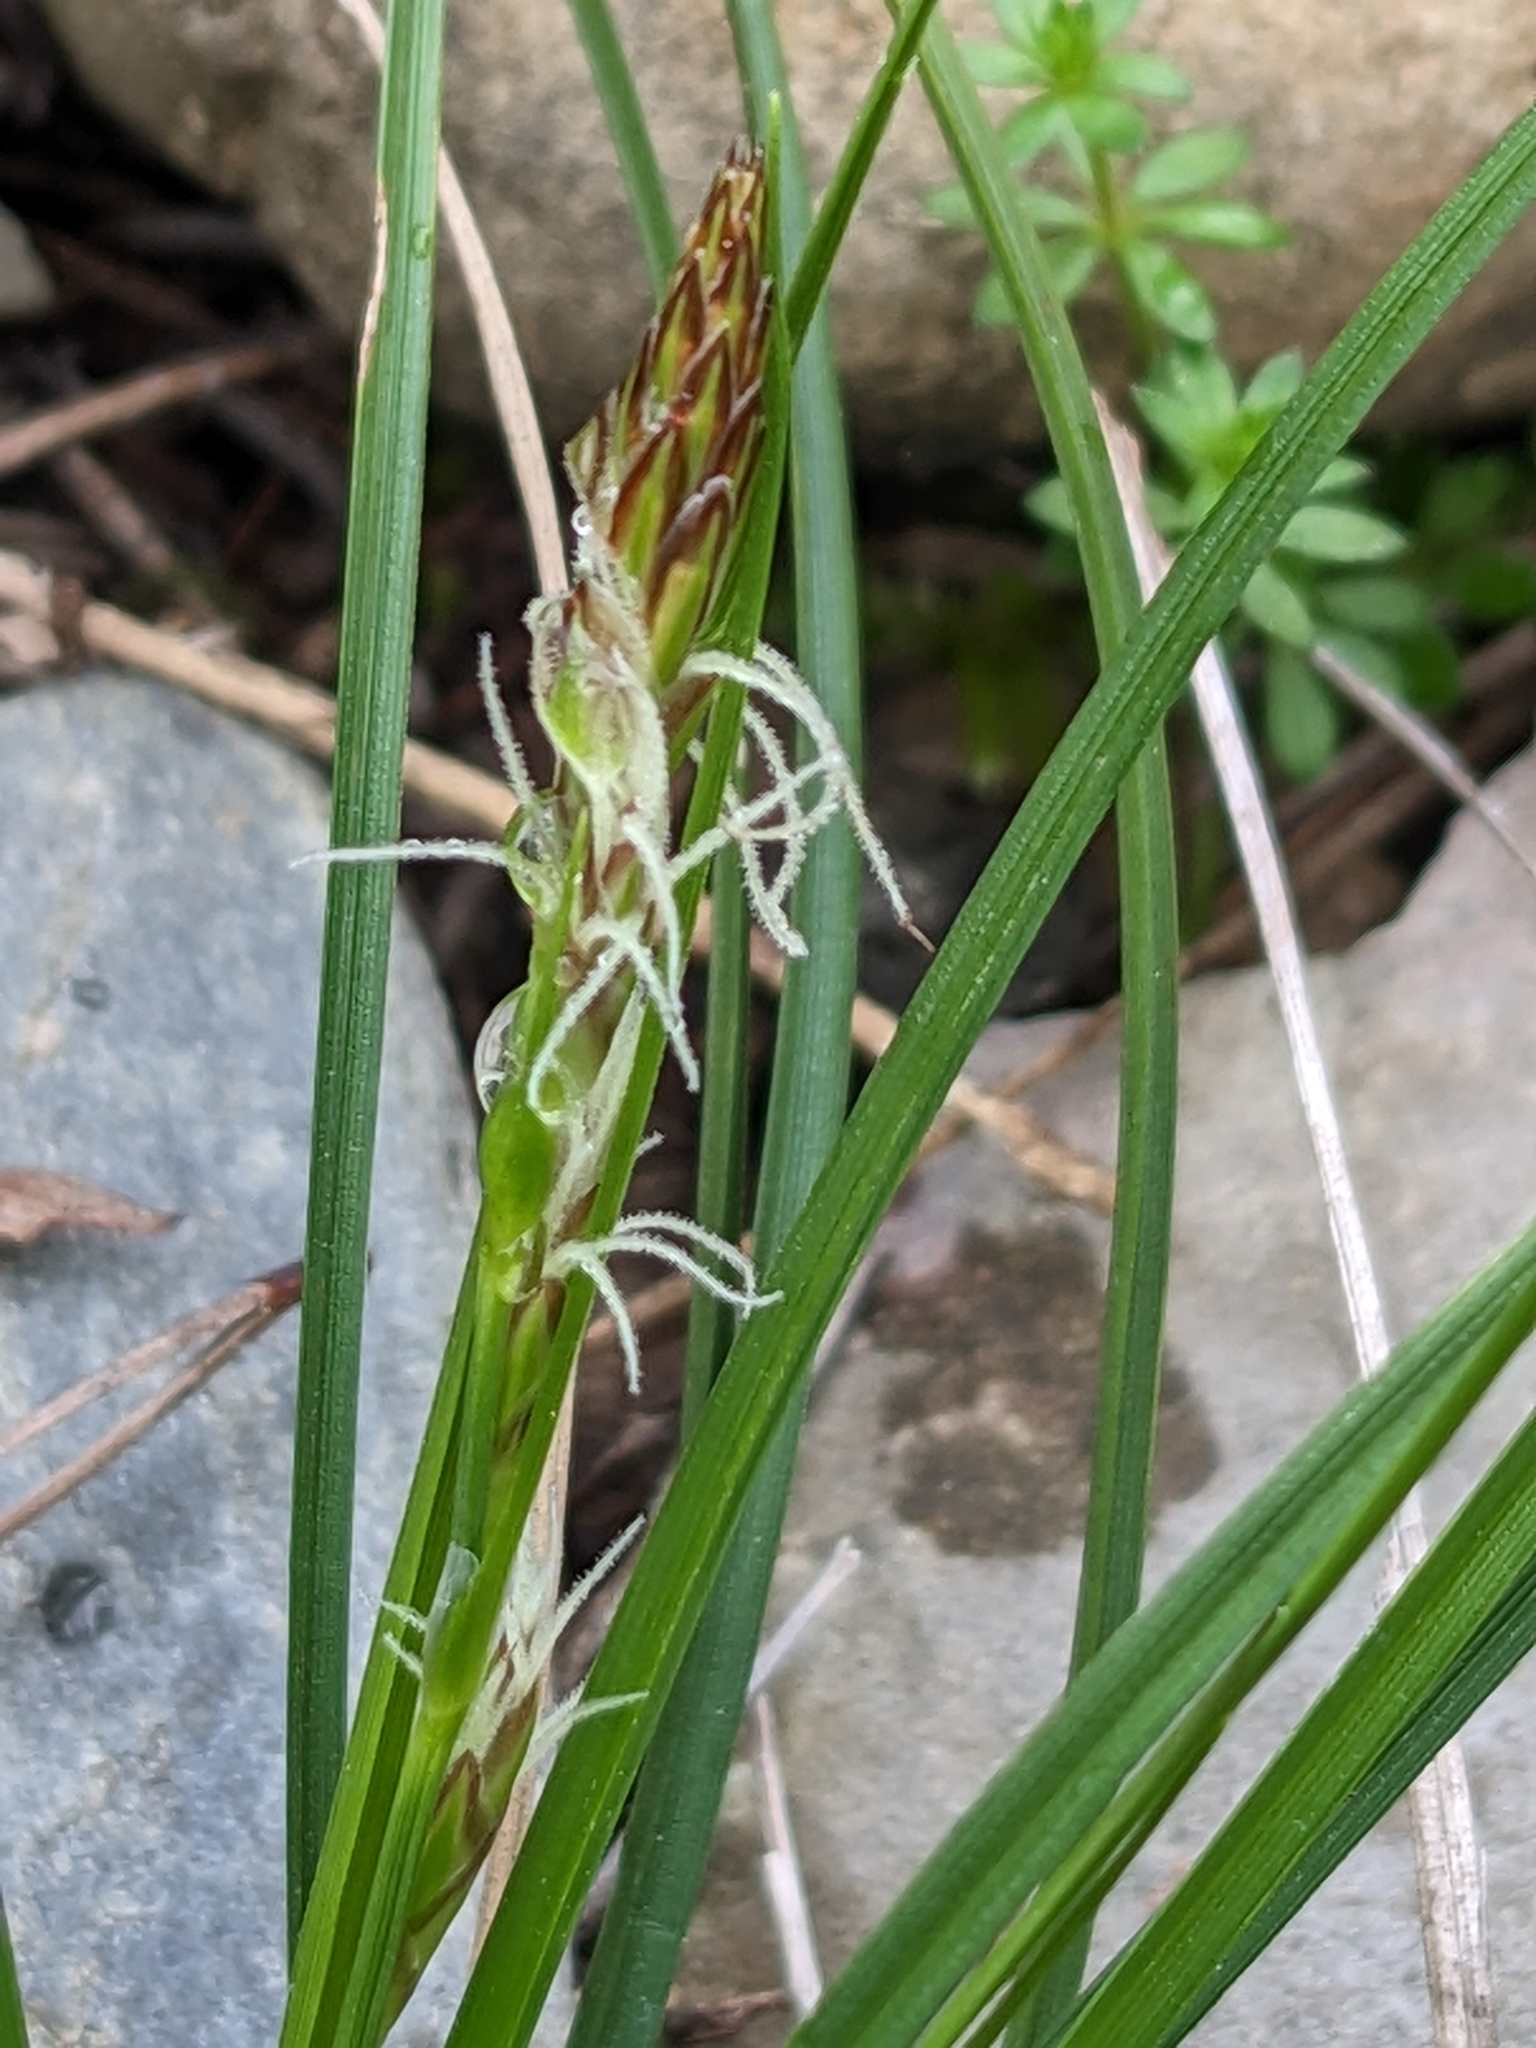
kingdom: Plantae
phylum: Tracheophyta
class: Liliopsida
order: Poales
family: Cyperaceae
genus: Carex
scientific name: Carex halleriana
